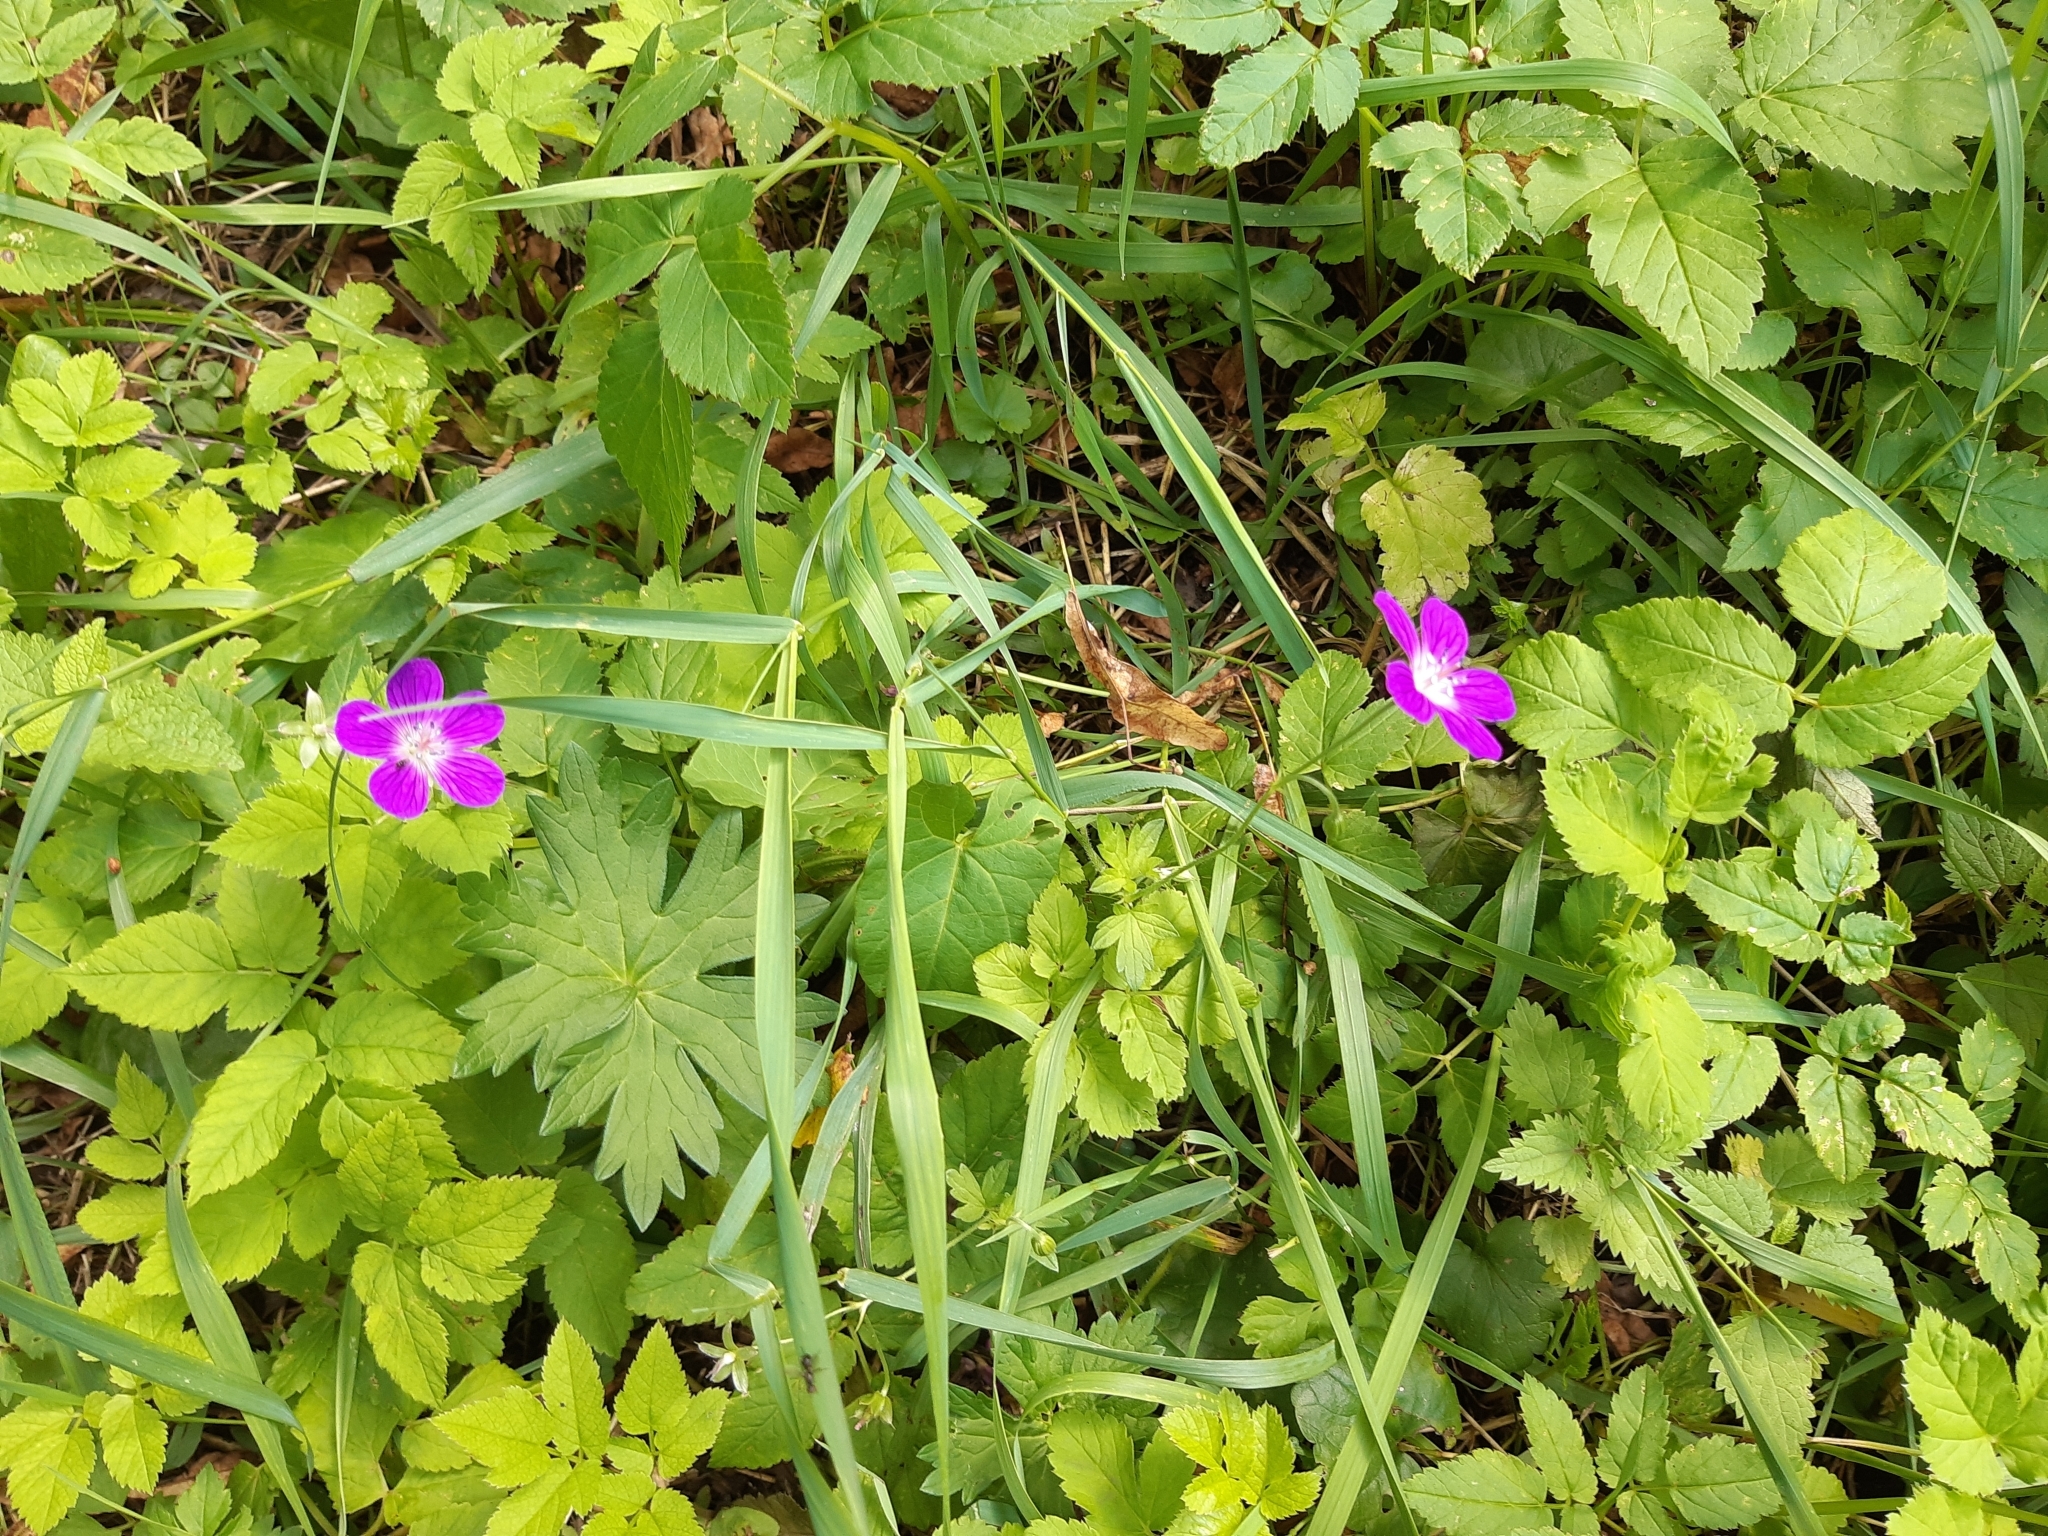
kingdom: Plantae
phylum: Tracheophyta
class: Magnoliopsida
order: Geraniales
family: Geraniaceae
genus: Geranium
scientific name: Geranium palustre
